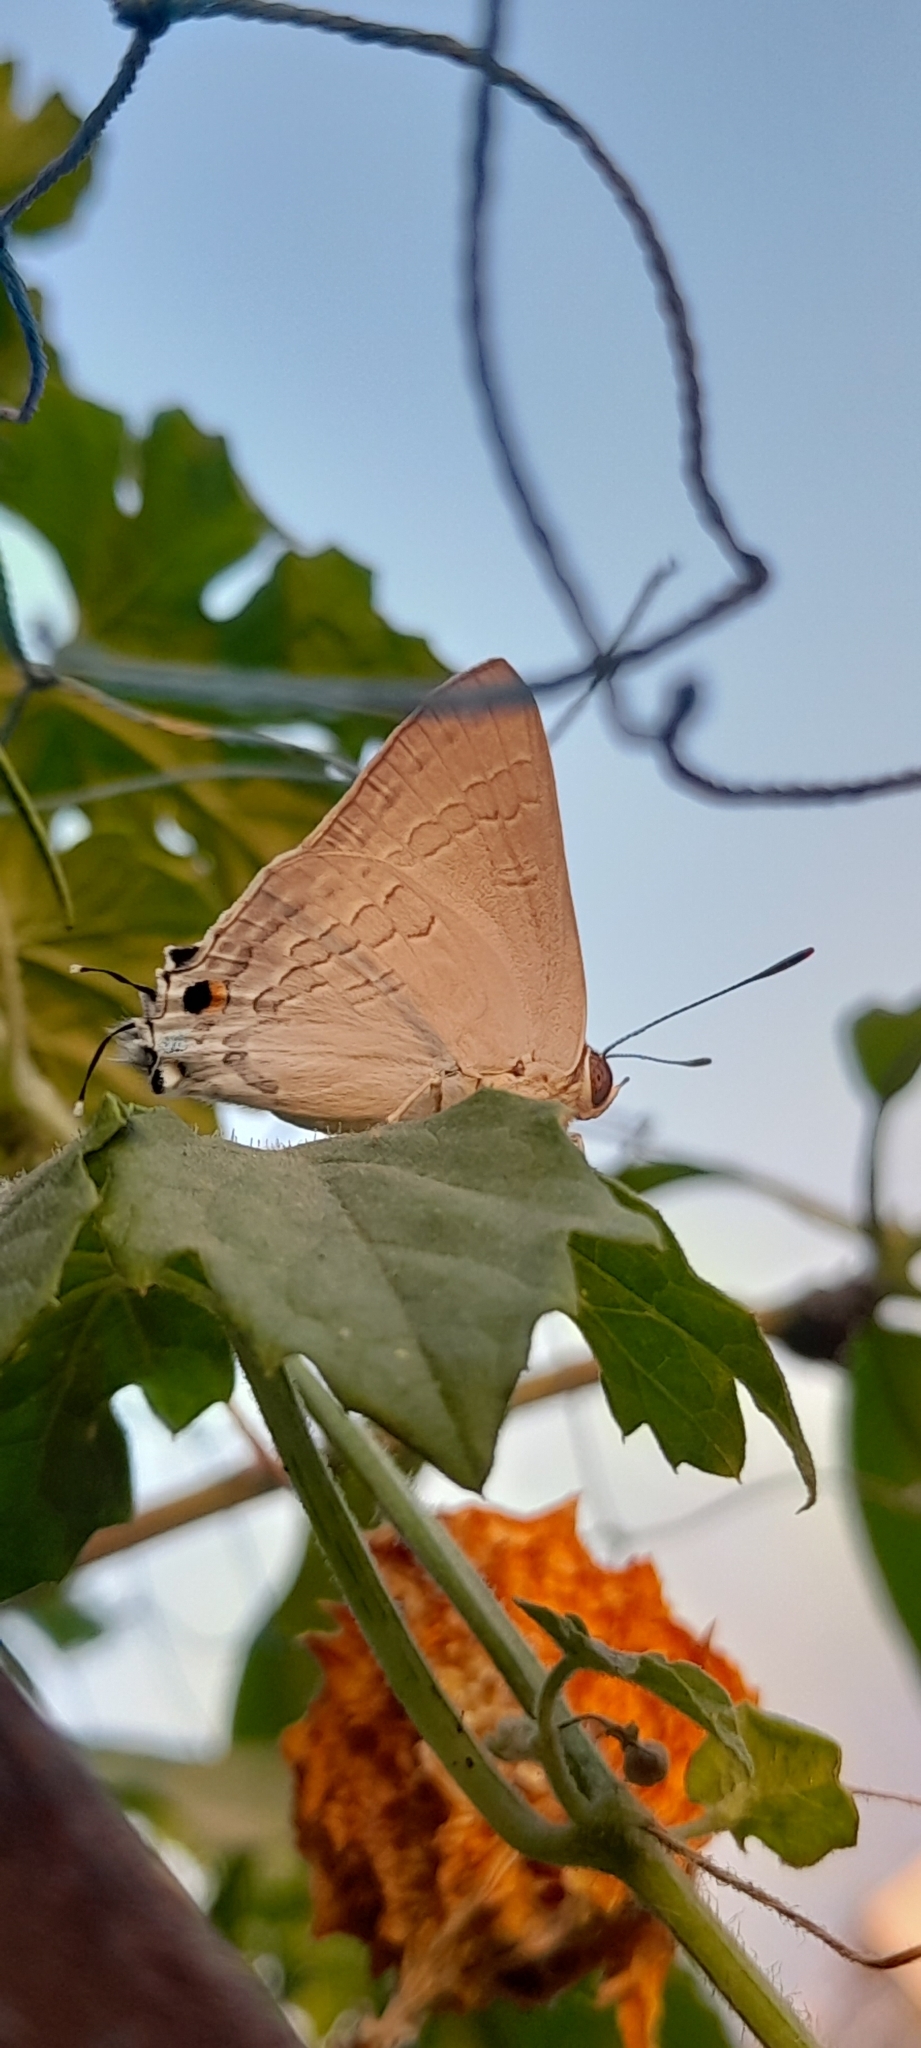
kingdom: Animalia
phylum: Arthropoda
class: Insecta
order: Lepidoptera
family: Lycaenidae
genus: Deudorix
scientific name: Deudorix
